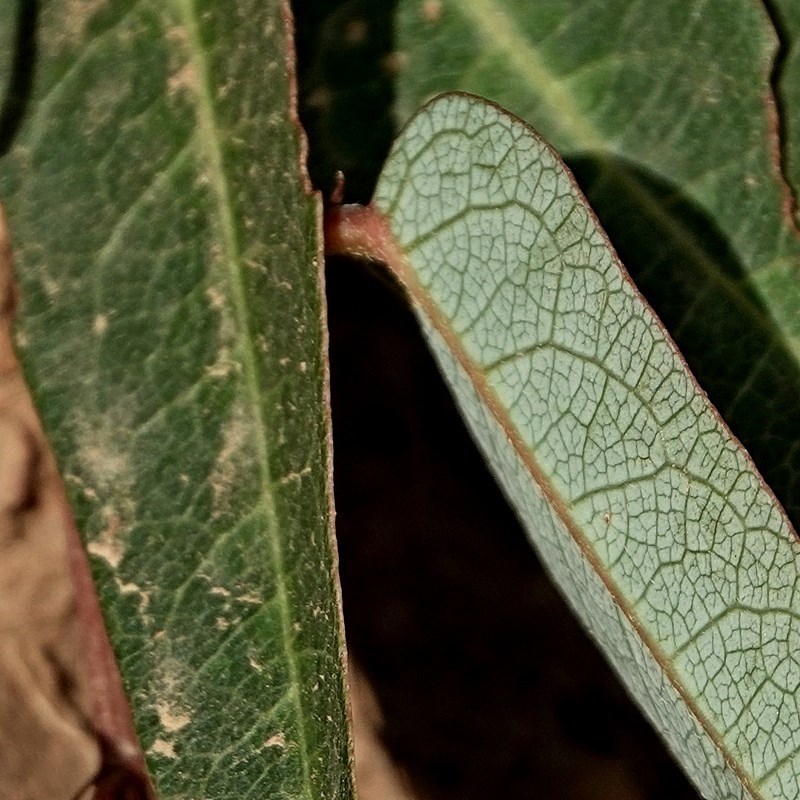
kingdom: Plantae
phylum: Tracheophyta
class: Magnoliopsida
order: Fabales
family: Fabaceae
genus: Hardenbergia
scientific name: Hardenbergia violacea
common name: Coral-pea
